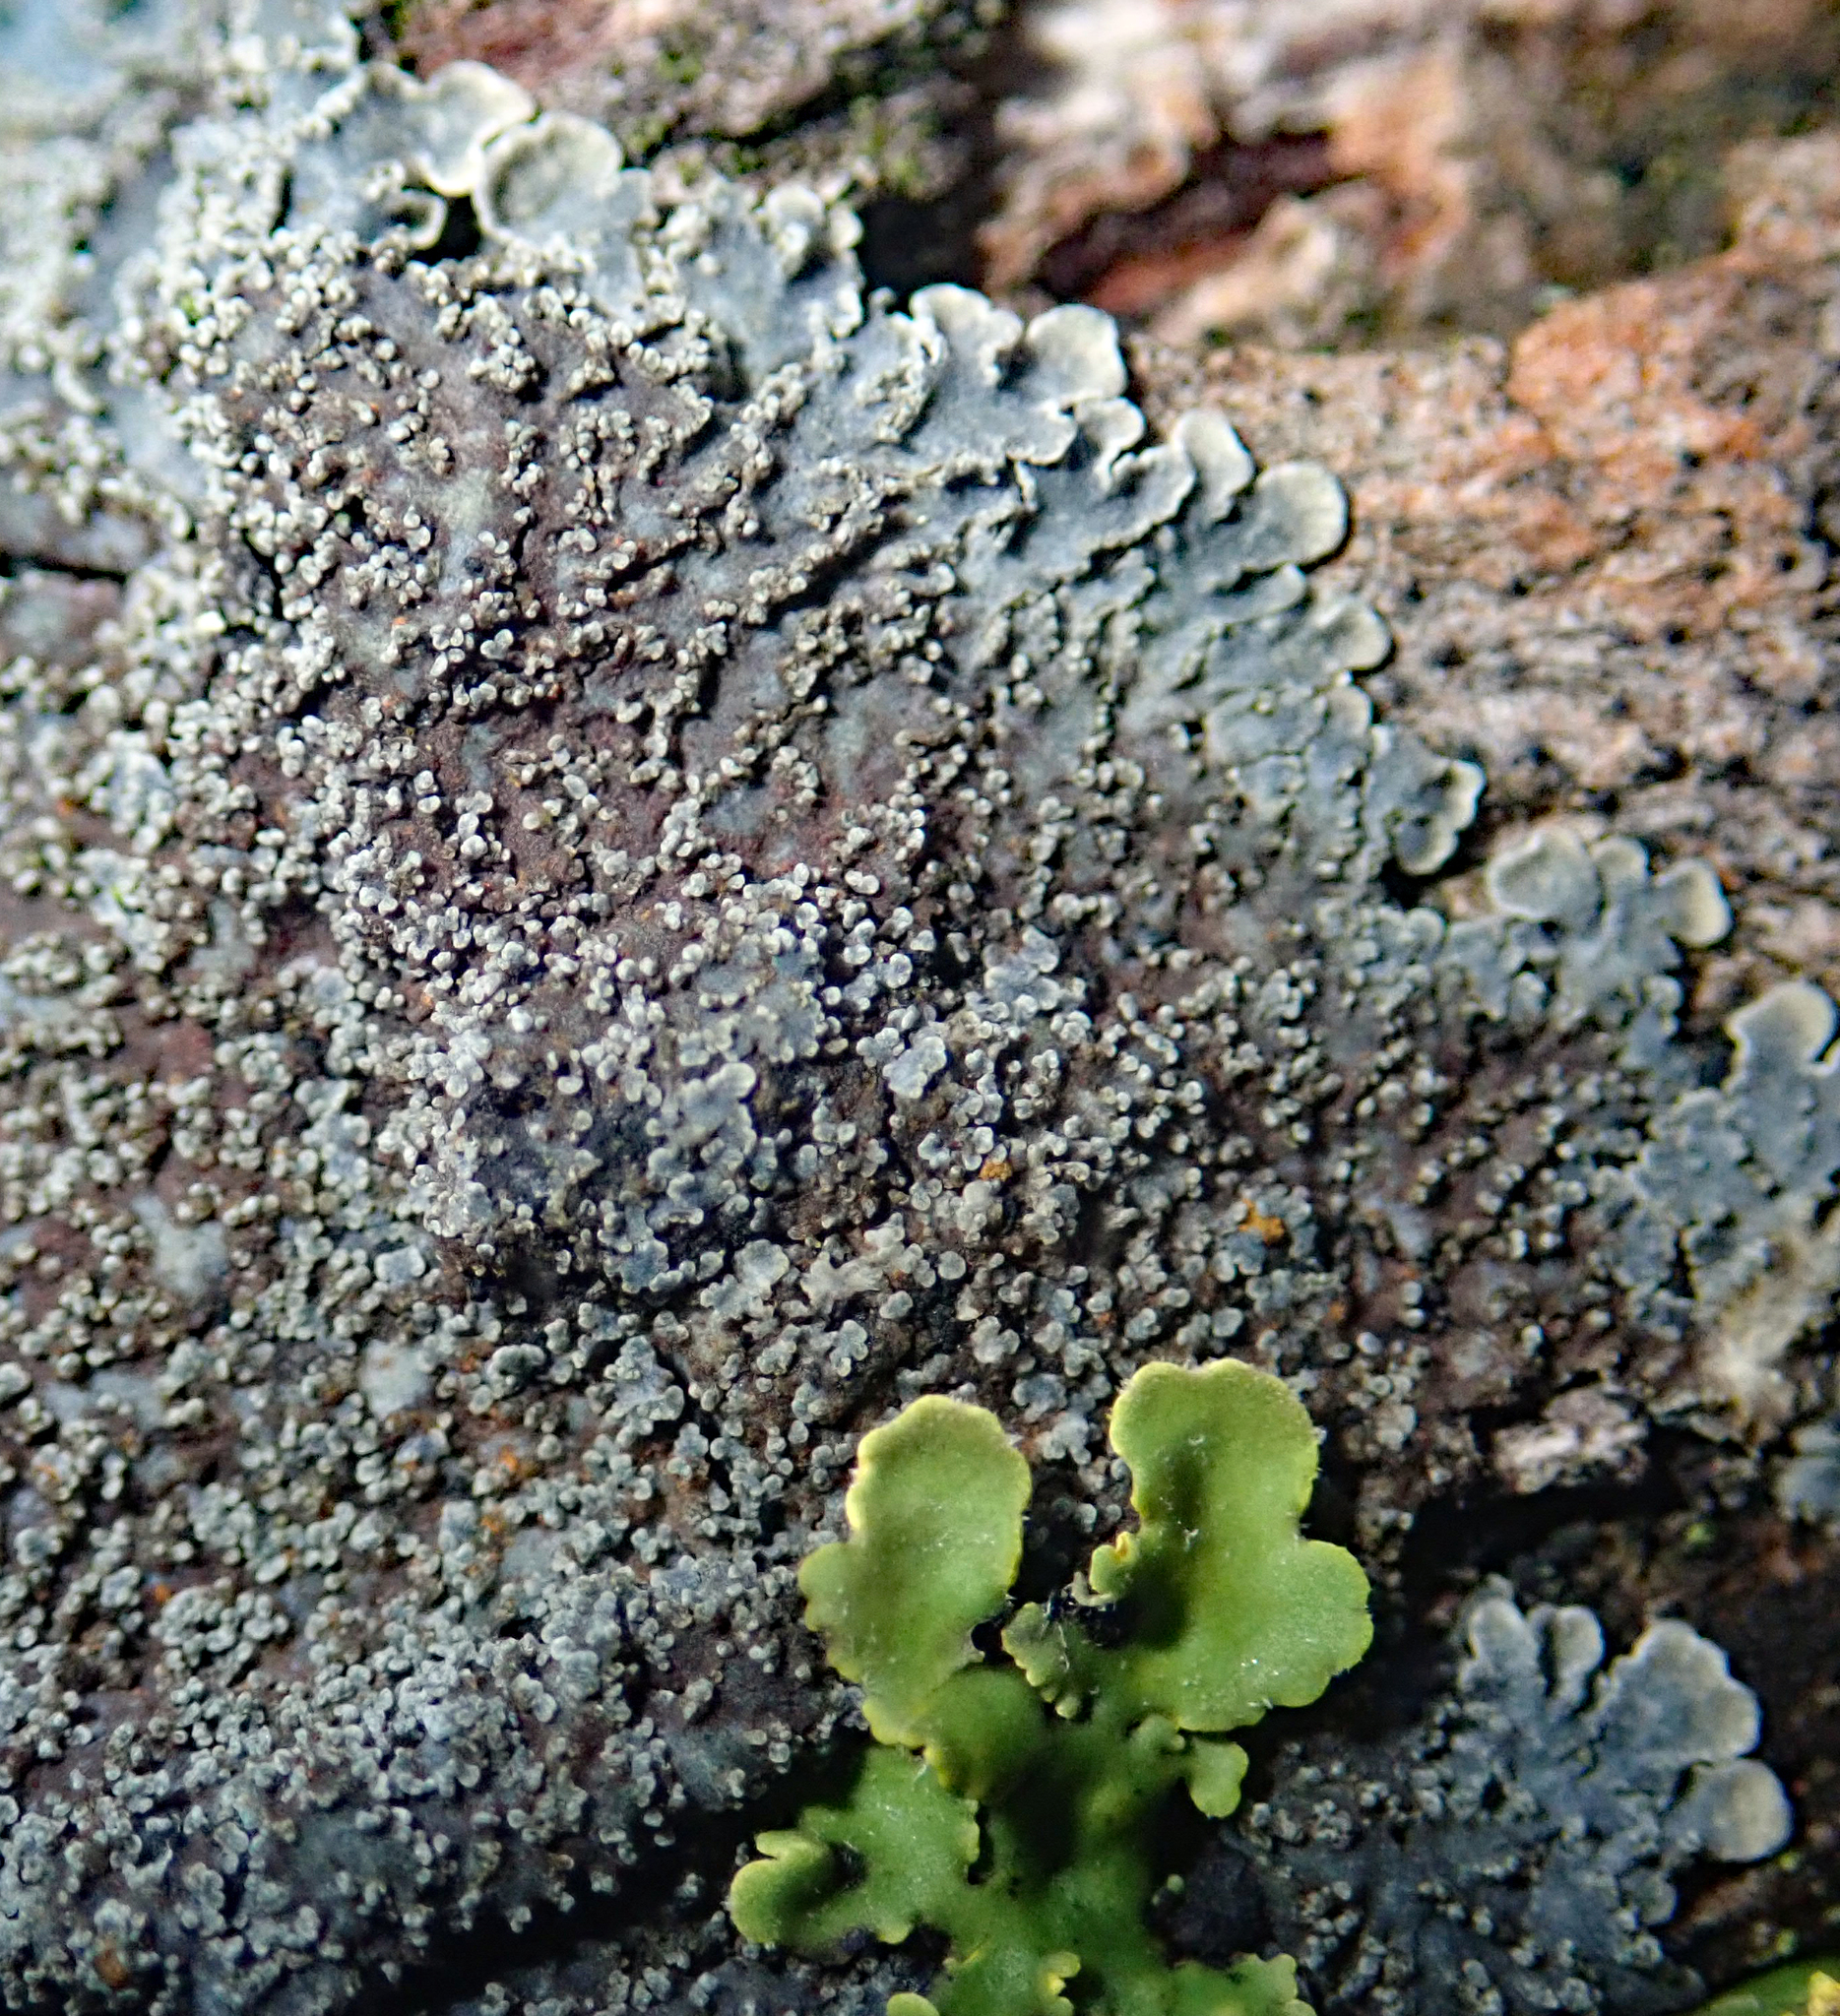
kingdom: Fungi
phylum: Ascomycota
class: Lecanoromycetes
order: Peltigerales
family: Pannariaceae
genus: Pannaria
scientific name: Pannaria elixii
